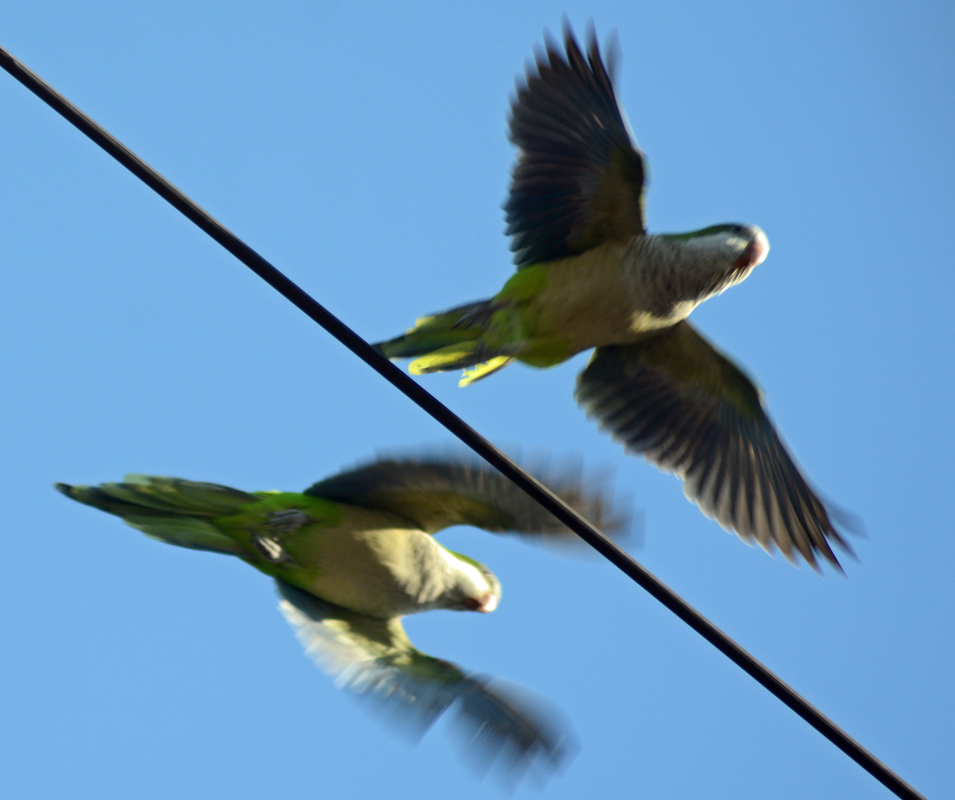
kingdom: Animalia
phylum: Chordata
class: Aves
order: Psittaciformes
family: Psittacidae
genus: Myiopsitta
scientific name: Myiopsitta monachus
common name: Monk parakeet
